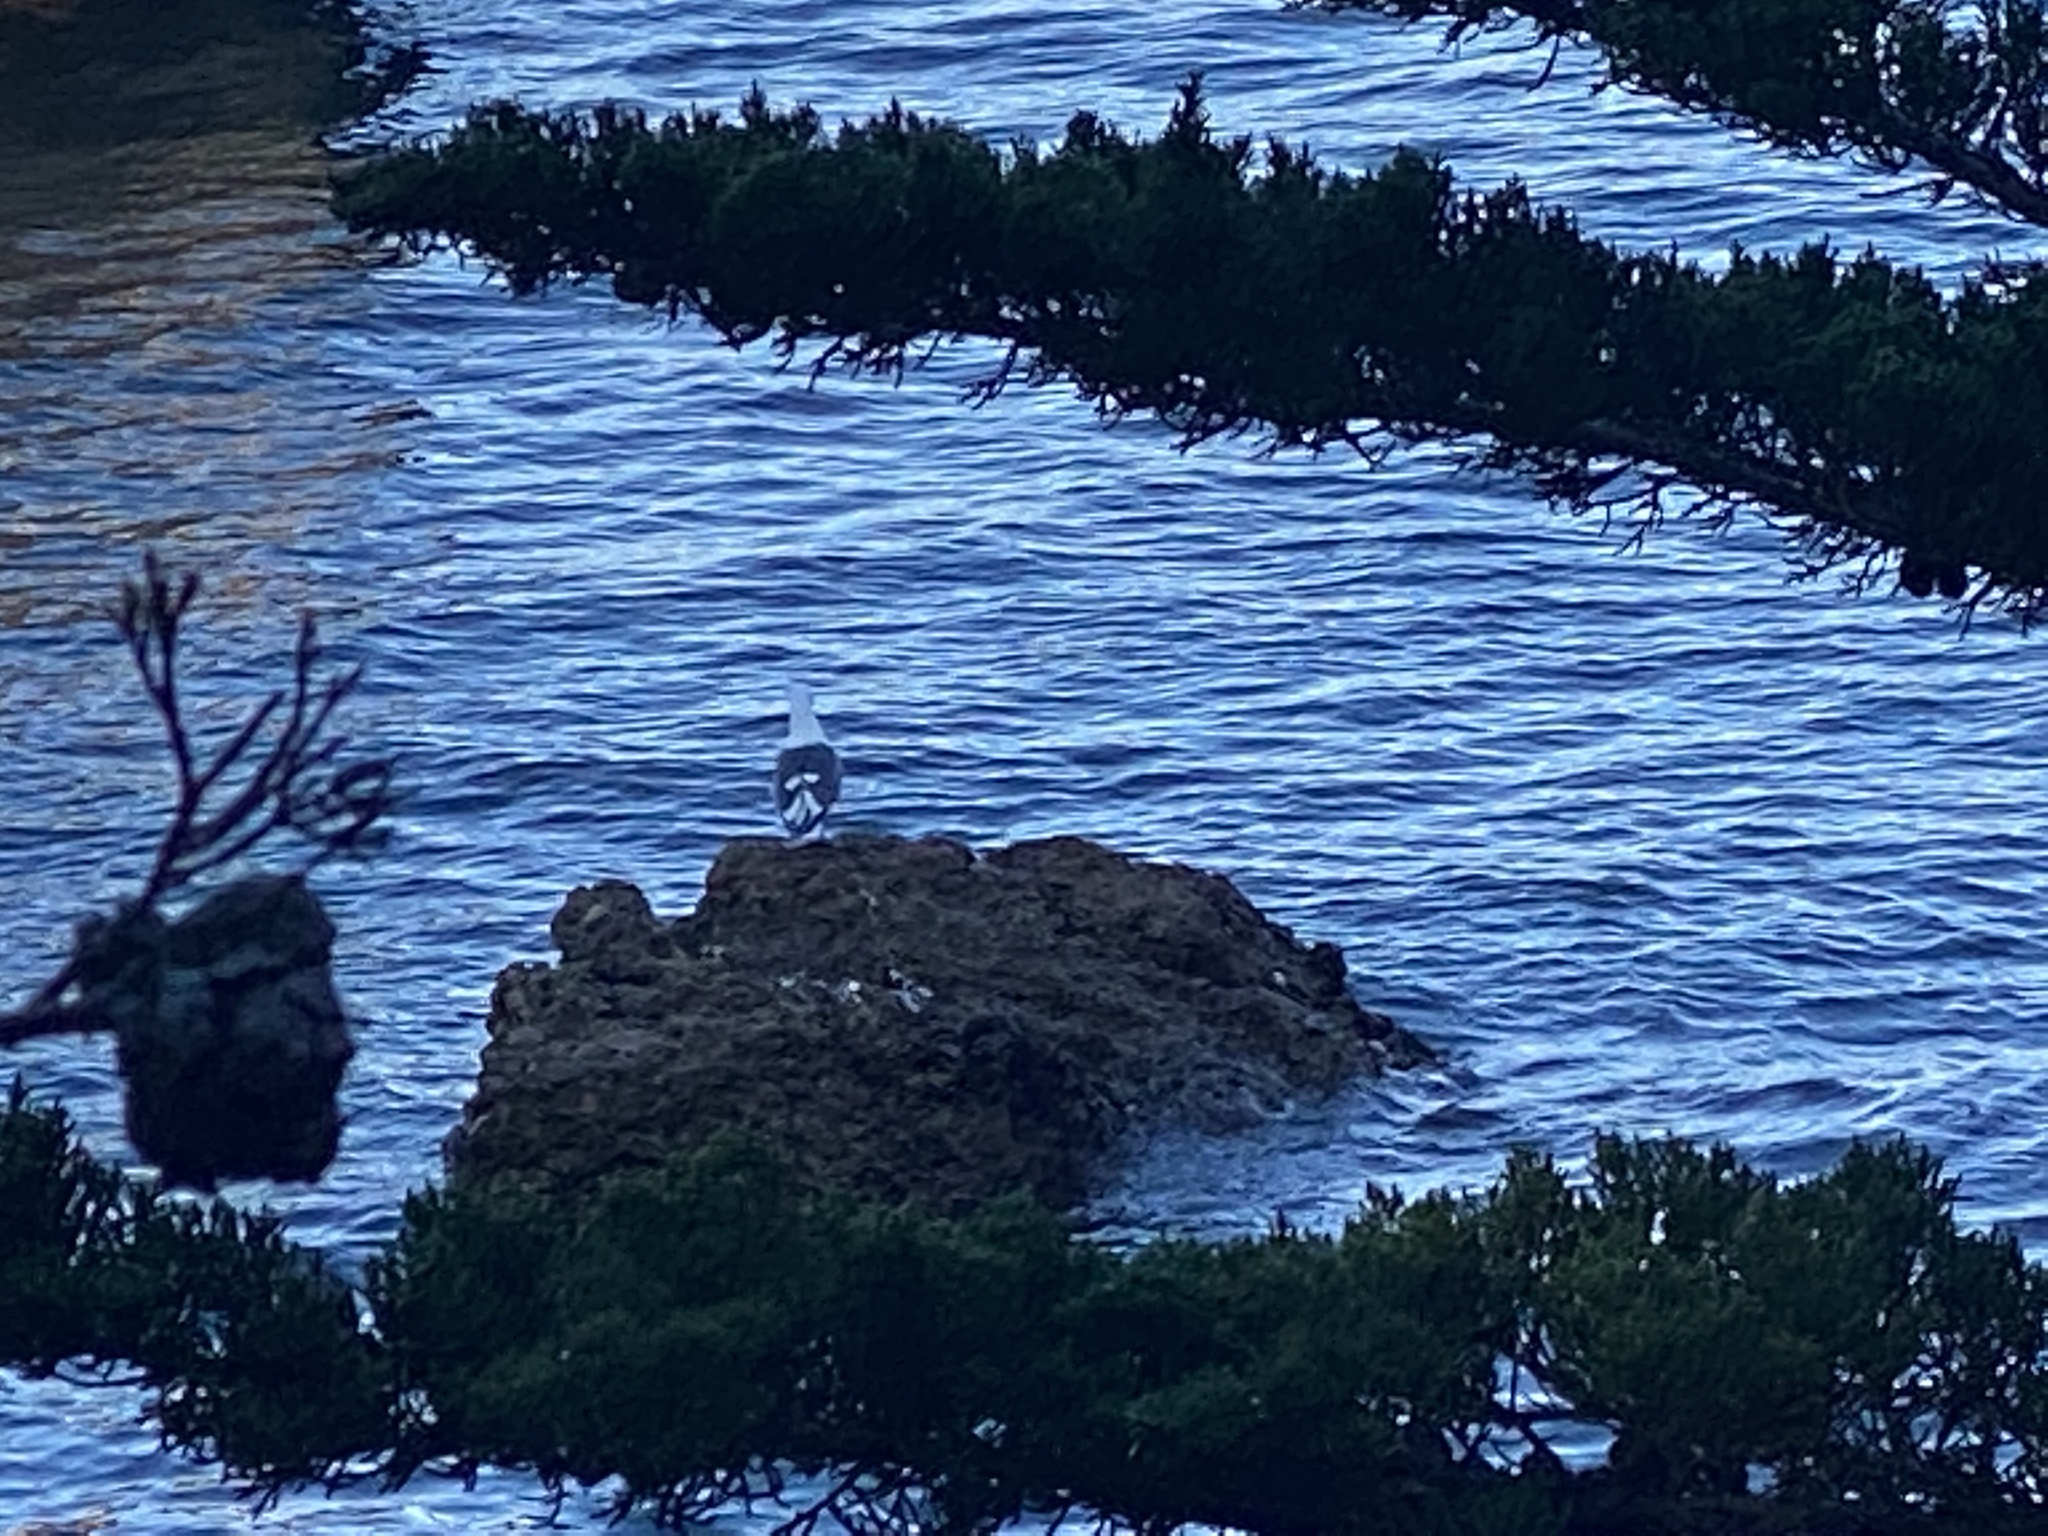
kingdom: Animalia
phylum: Chordata
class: Aves
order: Charadriiformes
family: Laridae
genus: Larus
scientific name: Larus occidentalis
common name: Western gull
